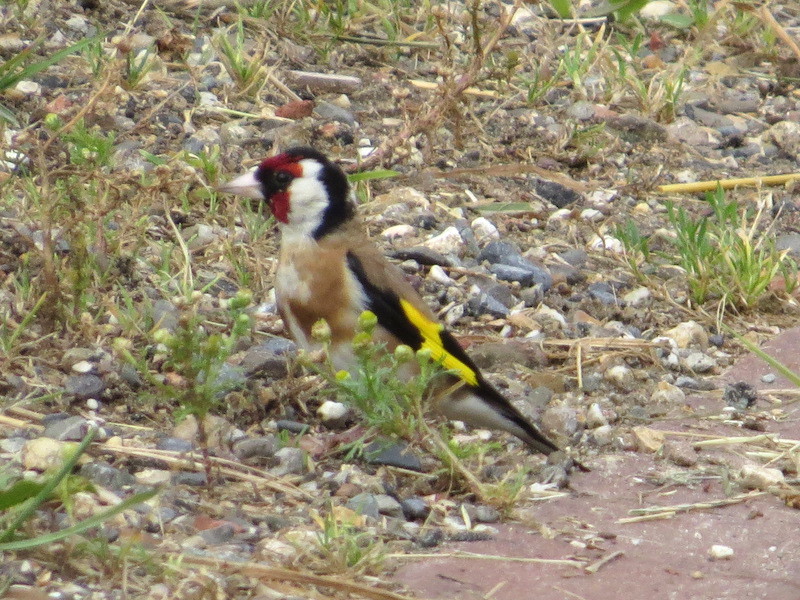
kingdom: Animalia
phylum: Chordata
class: Aves
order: Passeriformes
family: Fringillidae
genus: Carduelis
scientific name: Carduelis carduelis
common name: European goldfinch
